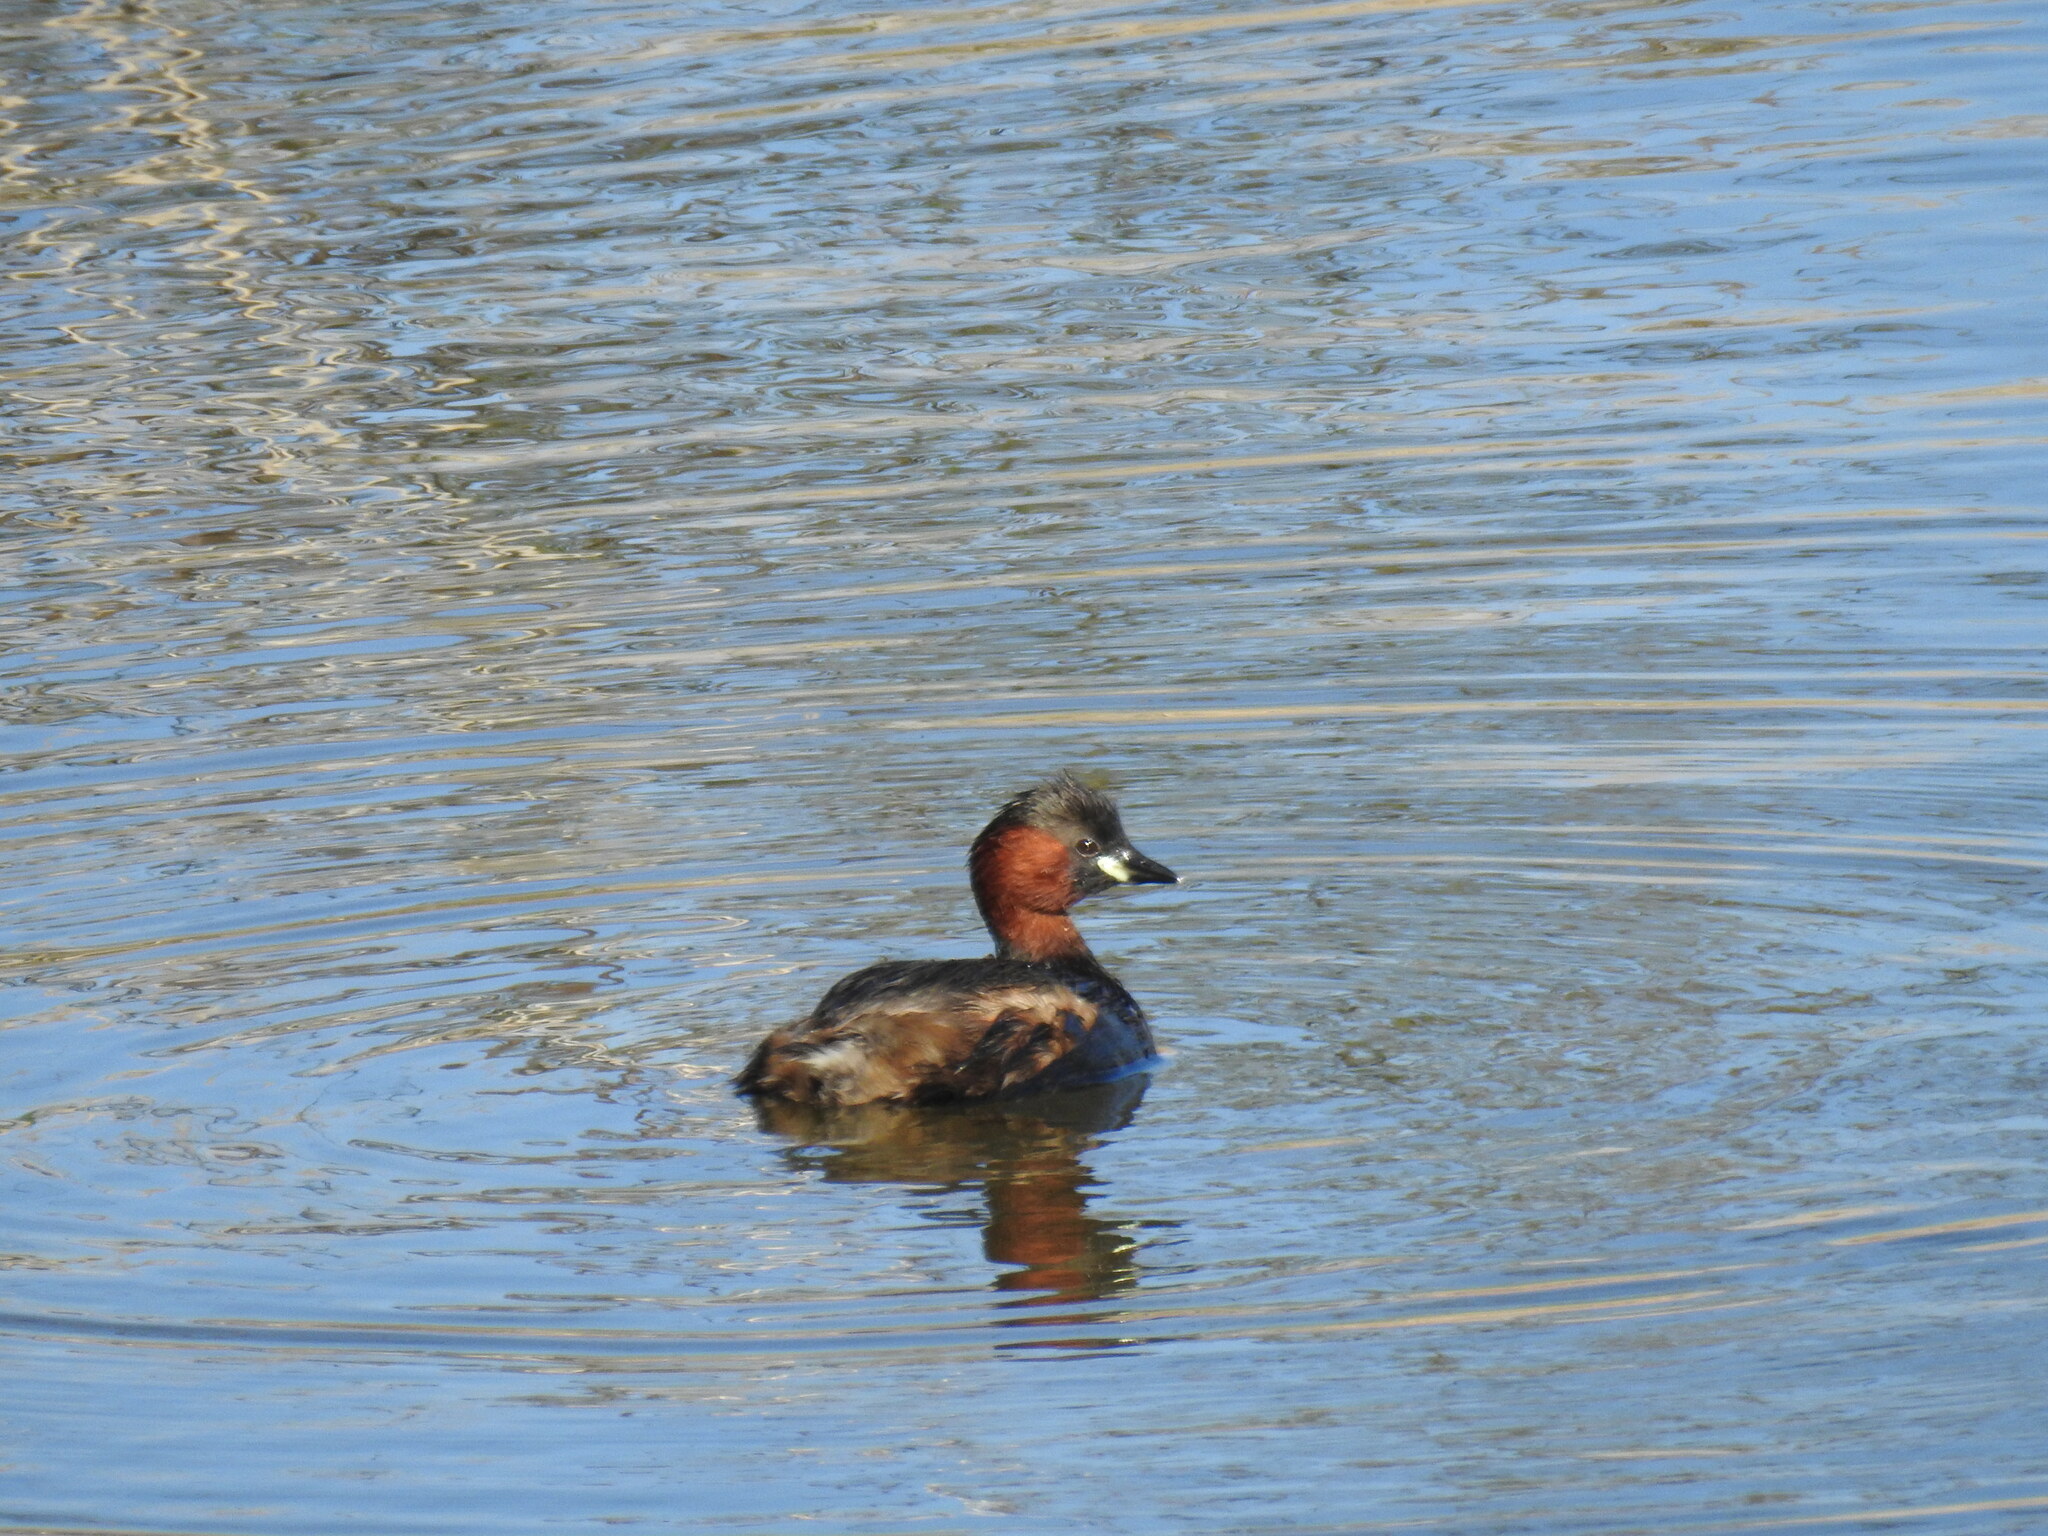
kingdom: Animalia
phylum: Chordata
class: Aves
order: Podicipediformes
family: Podicipedidae
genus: Tachybaptus
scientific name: Tachybaptus ruficollis
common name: Little grebe
